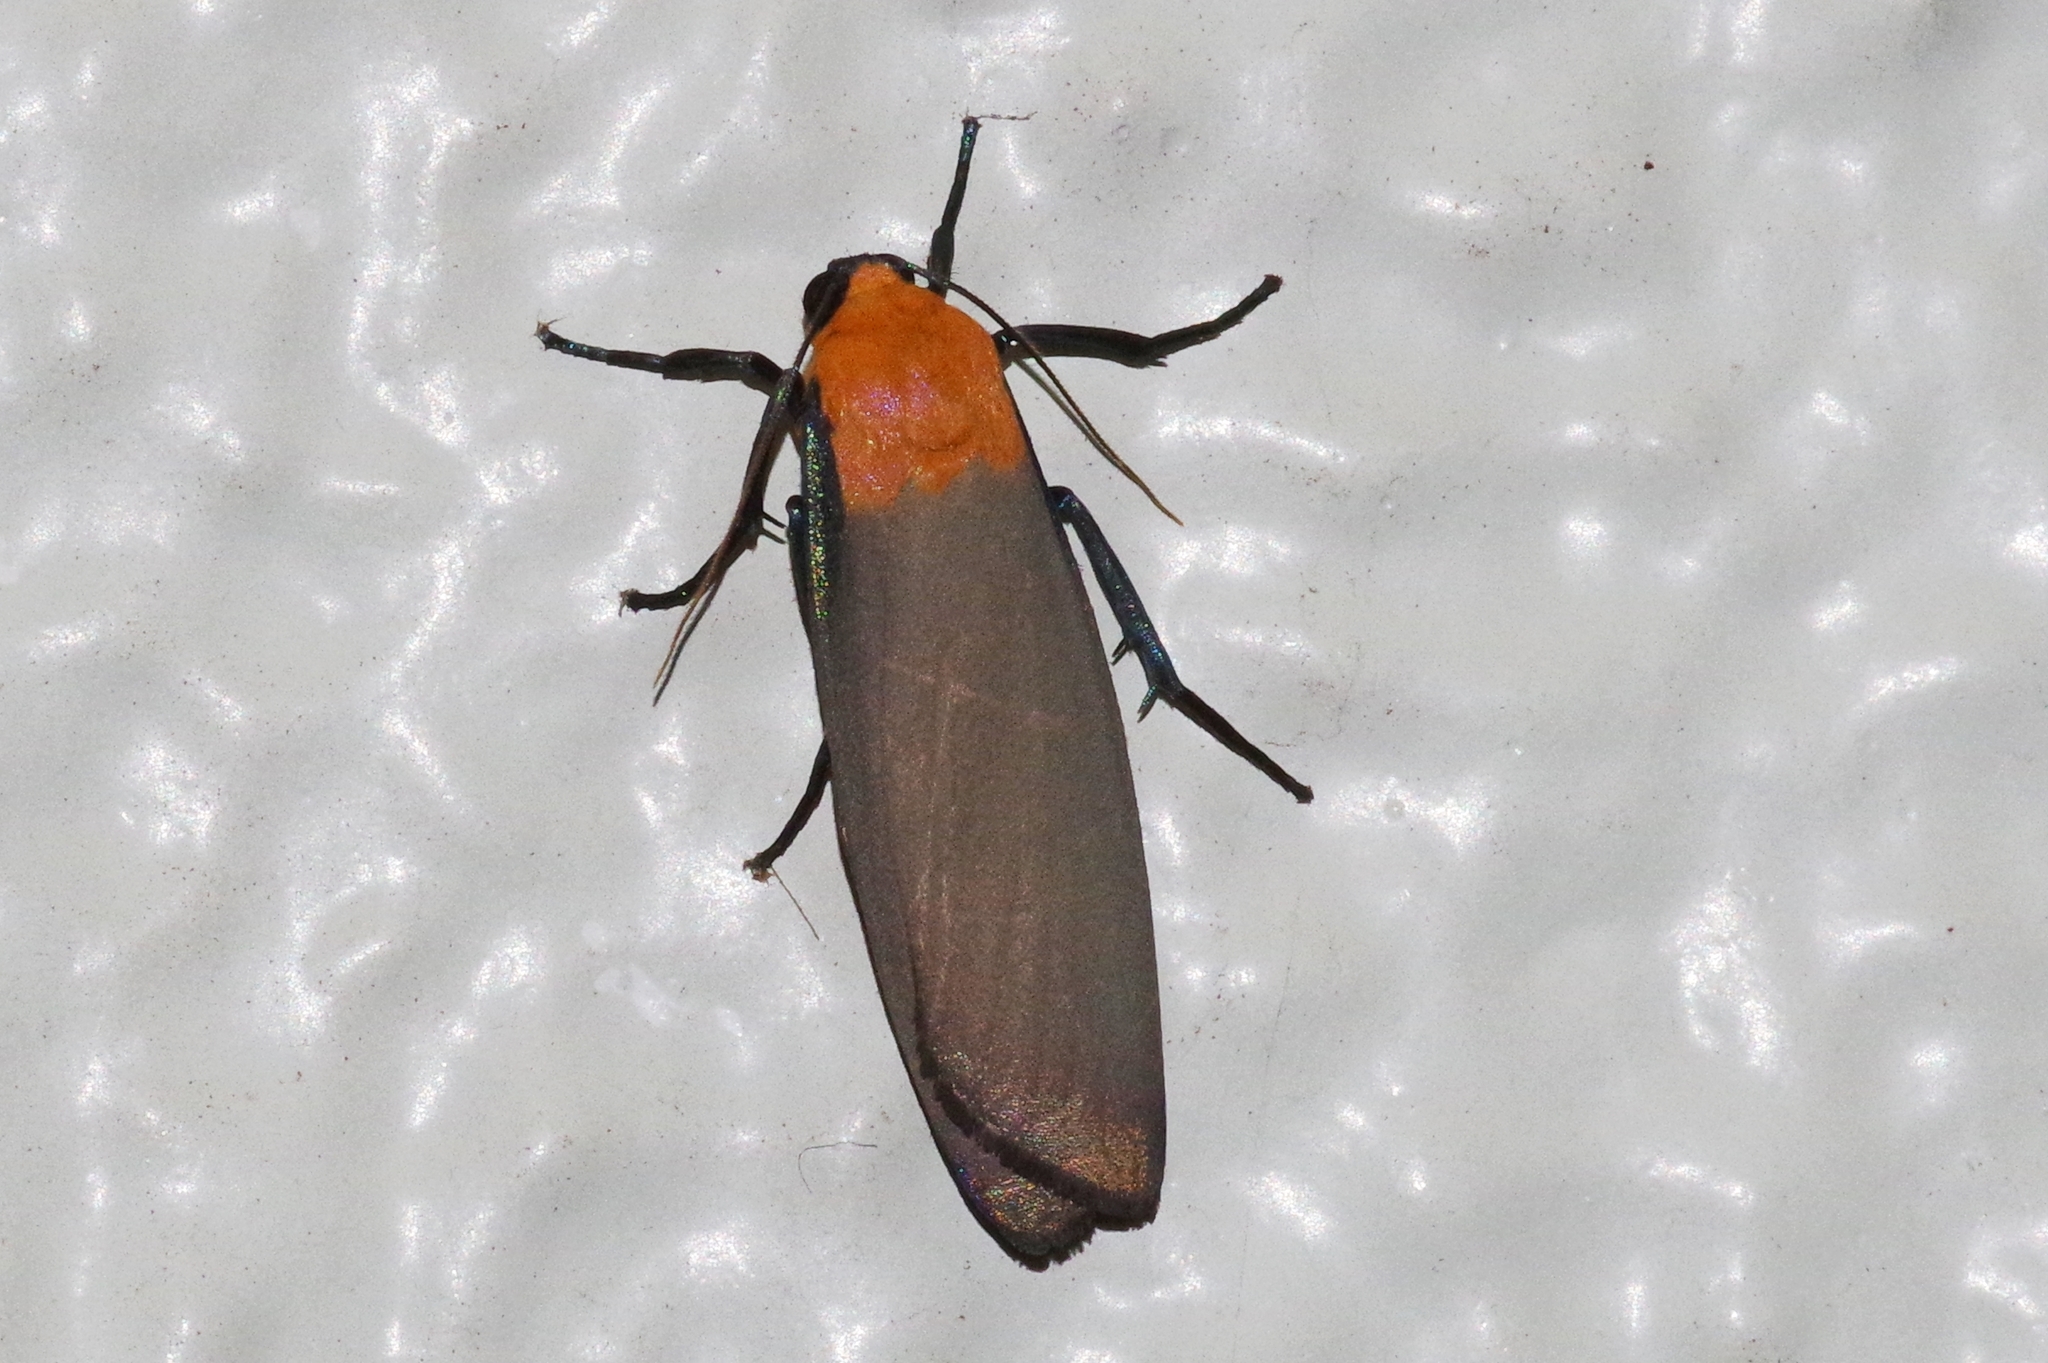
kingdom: Animalia
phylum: Arthropoda
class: Insecta
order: Lepidoptera
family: Erebidae
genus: Lithosia
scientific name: Lithosia
